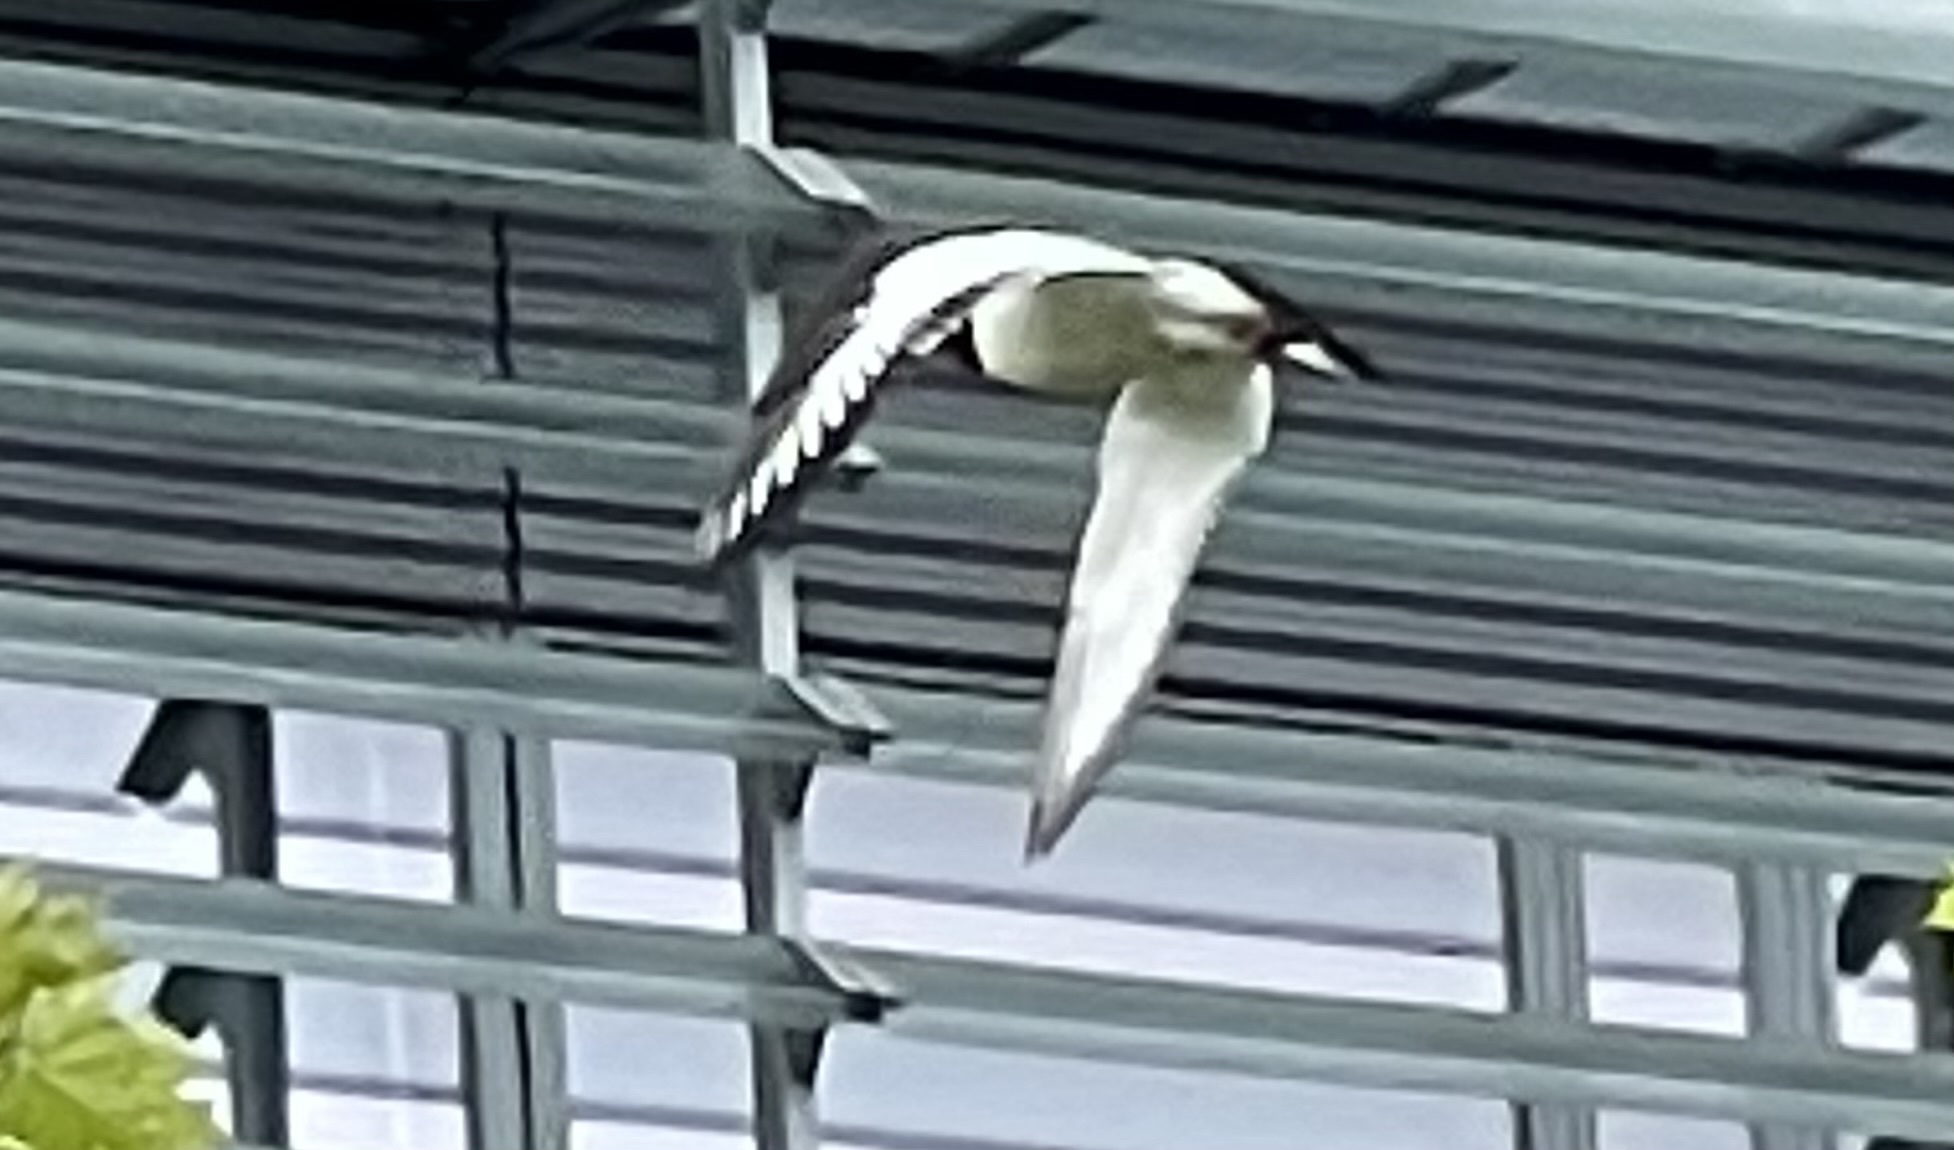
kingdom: Animalia
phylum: Chordata
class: Aves
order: Charadriiformes
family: Haematopodidae
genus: Haematopus
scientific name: Haematopus ostralegus
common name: Eurasian oystercatcher
